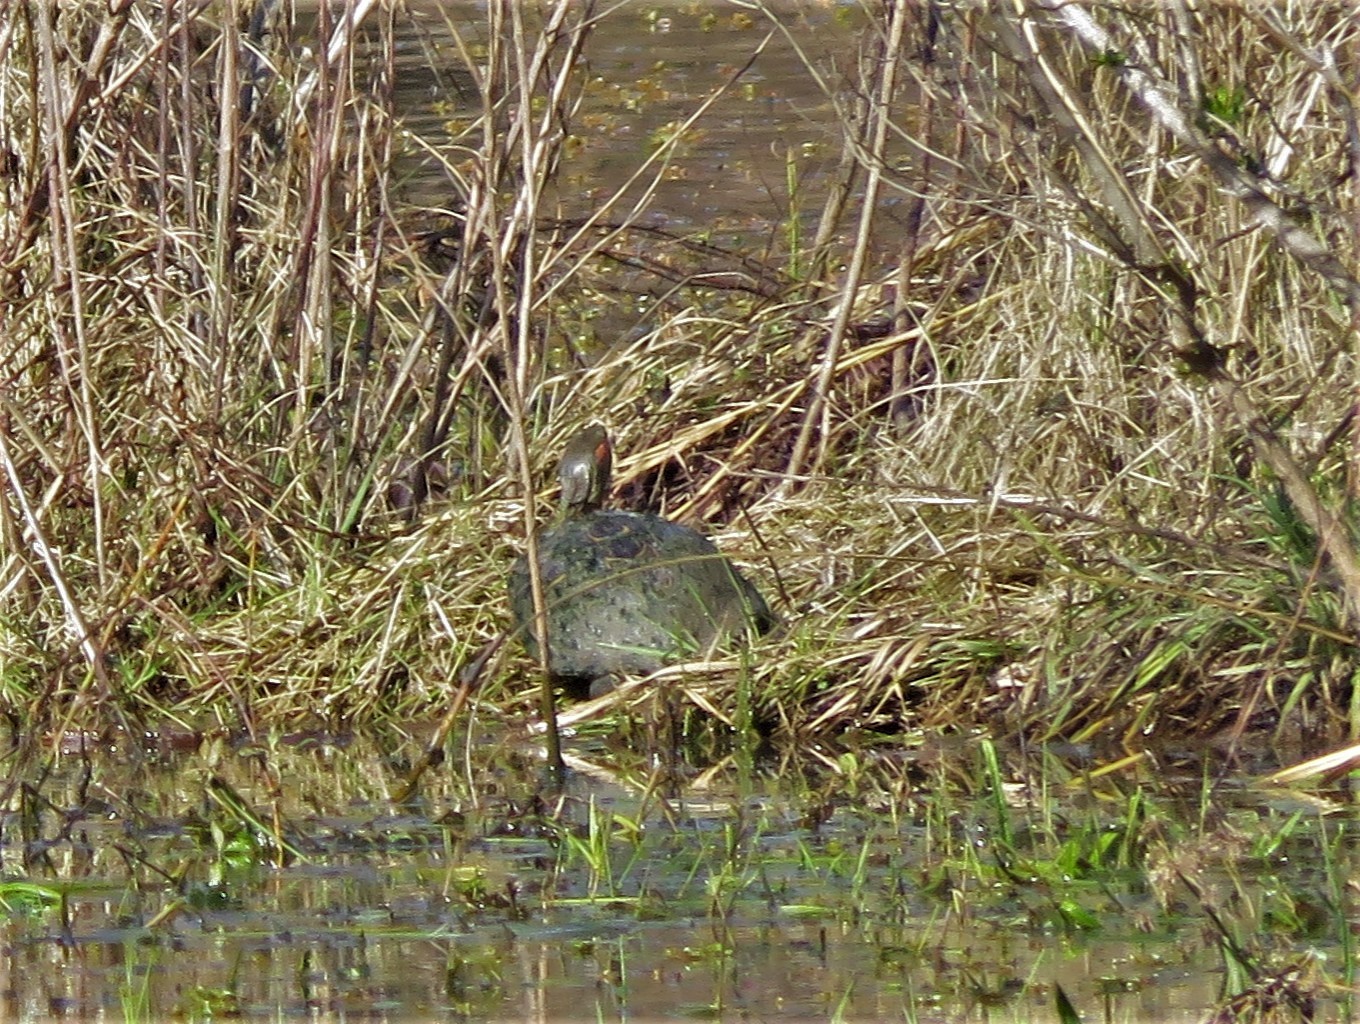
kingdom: Animalia
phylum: Chordata
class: Testudines
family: Emydidae
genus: Trachemys
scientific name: Trachemys scripta
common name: Slider
